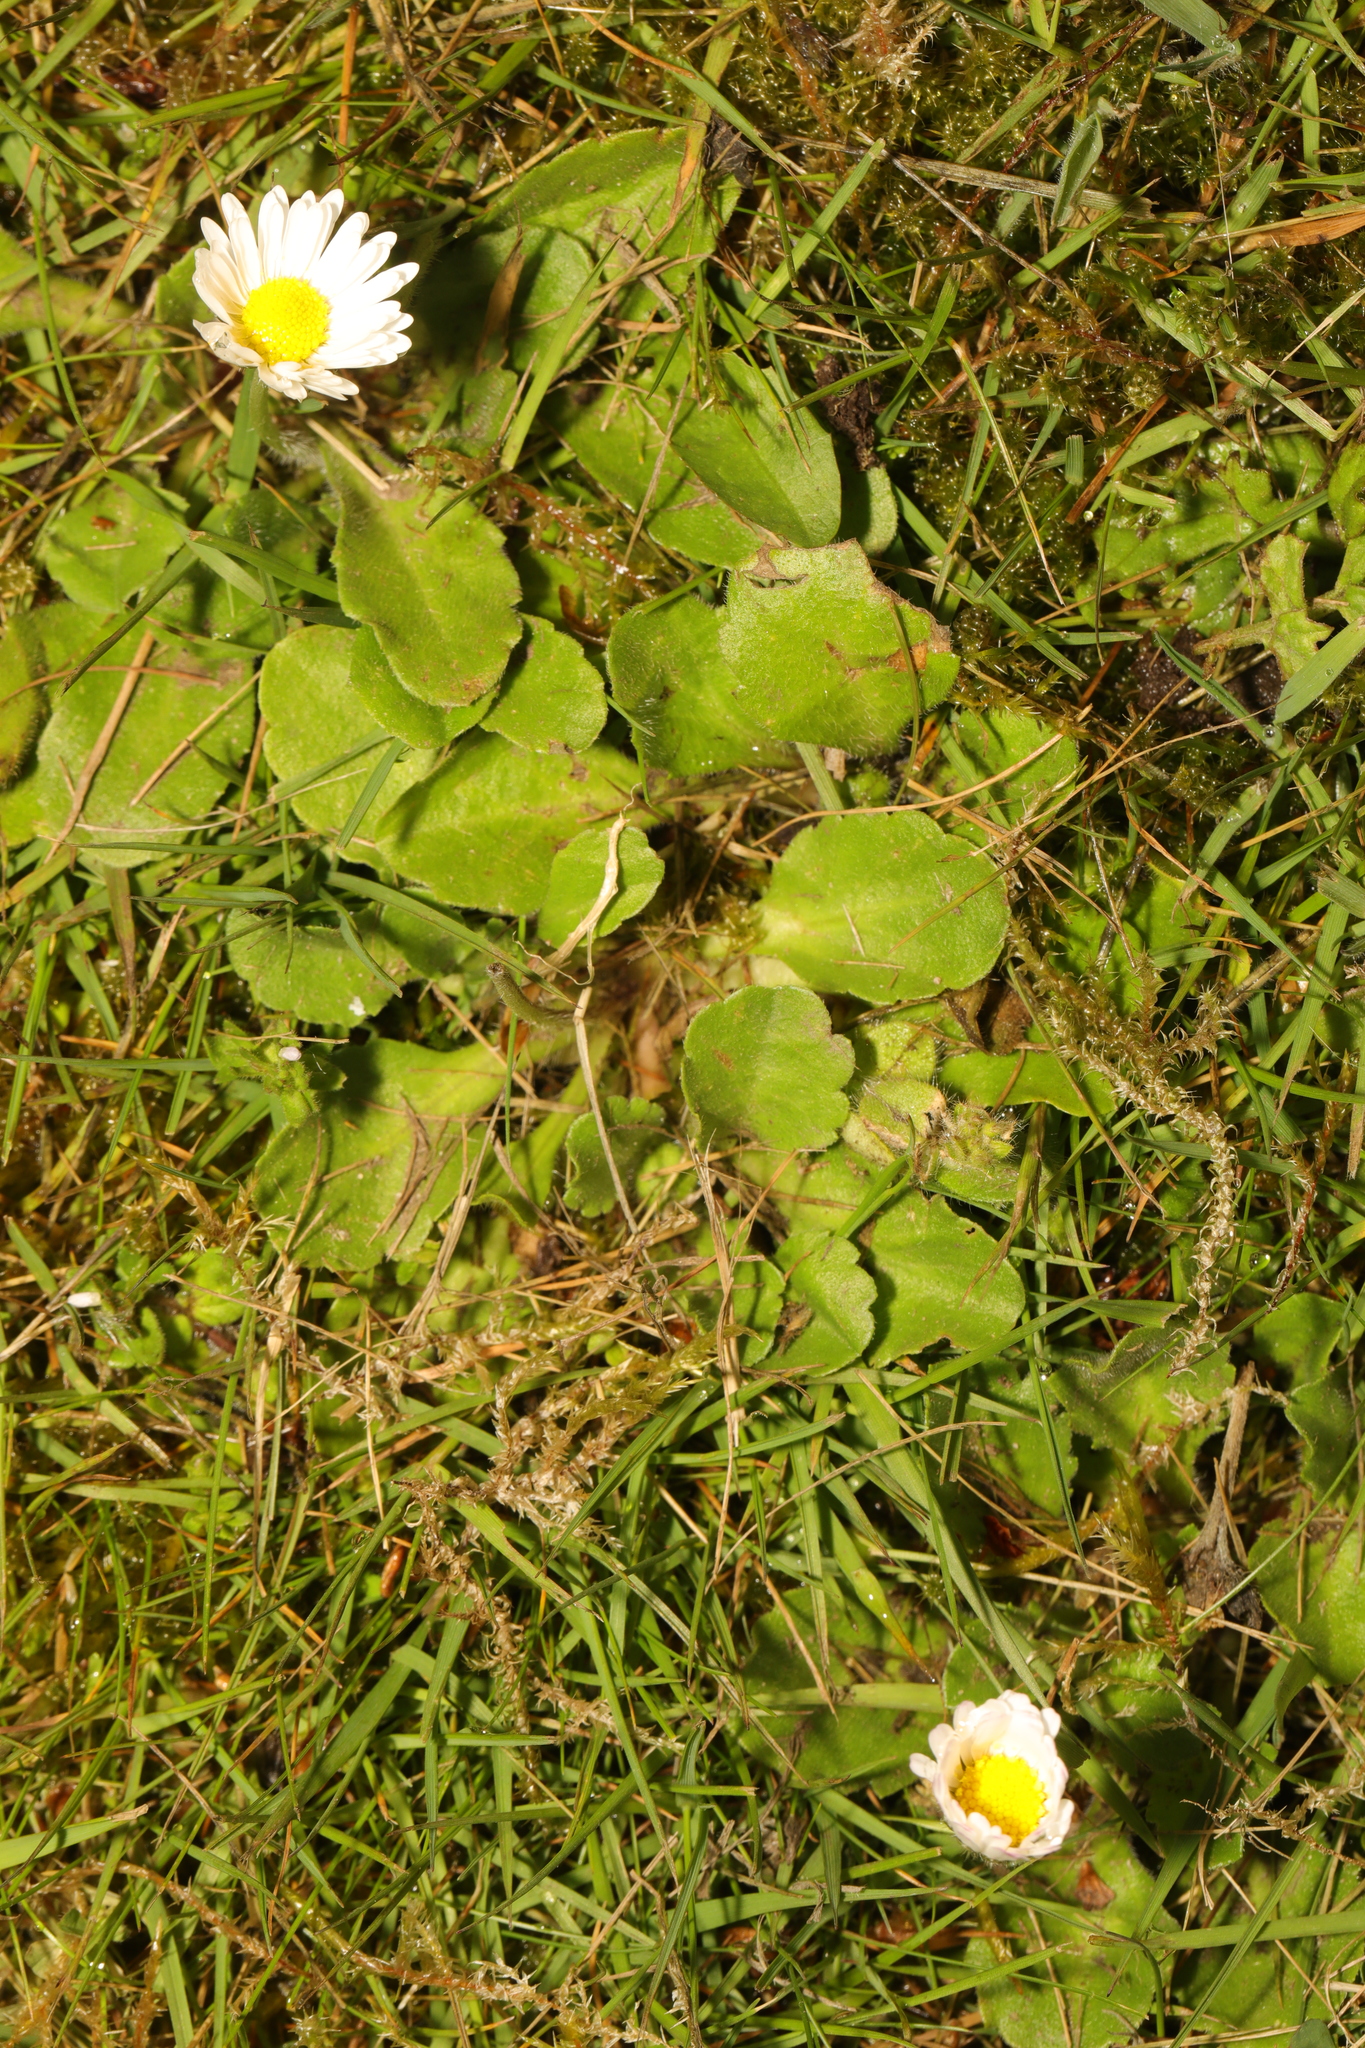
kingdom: Plantae
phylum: Tracheophyta
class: Magnoliopsida
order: Asterales
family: Asteraceae
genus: Bellis
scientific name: Bellis perennis
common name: Lawndaisy
